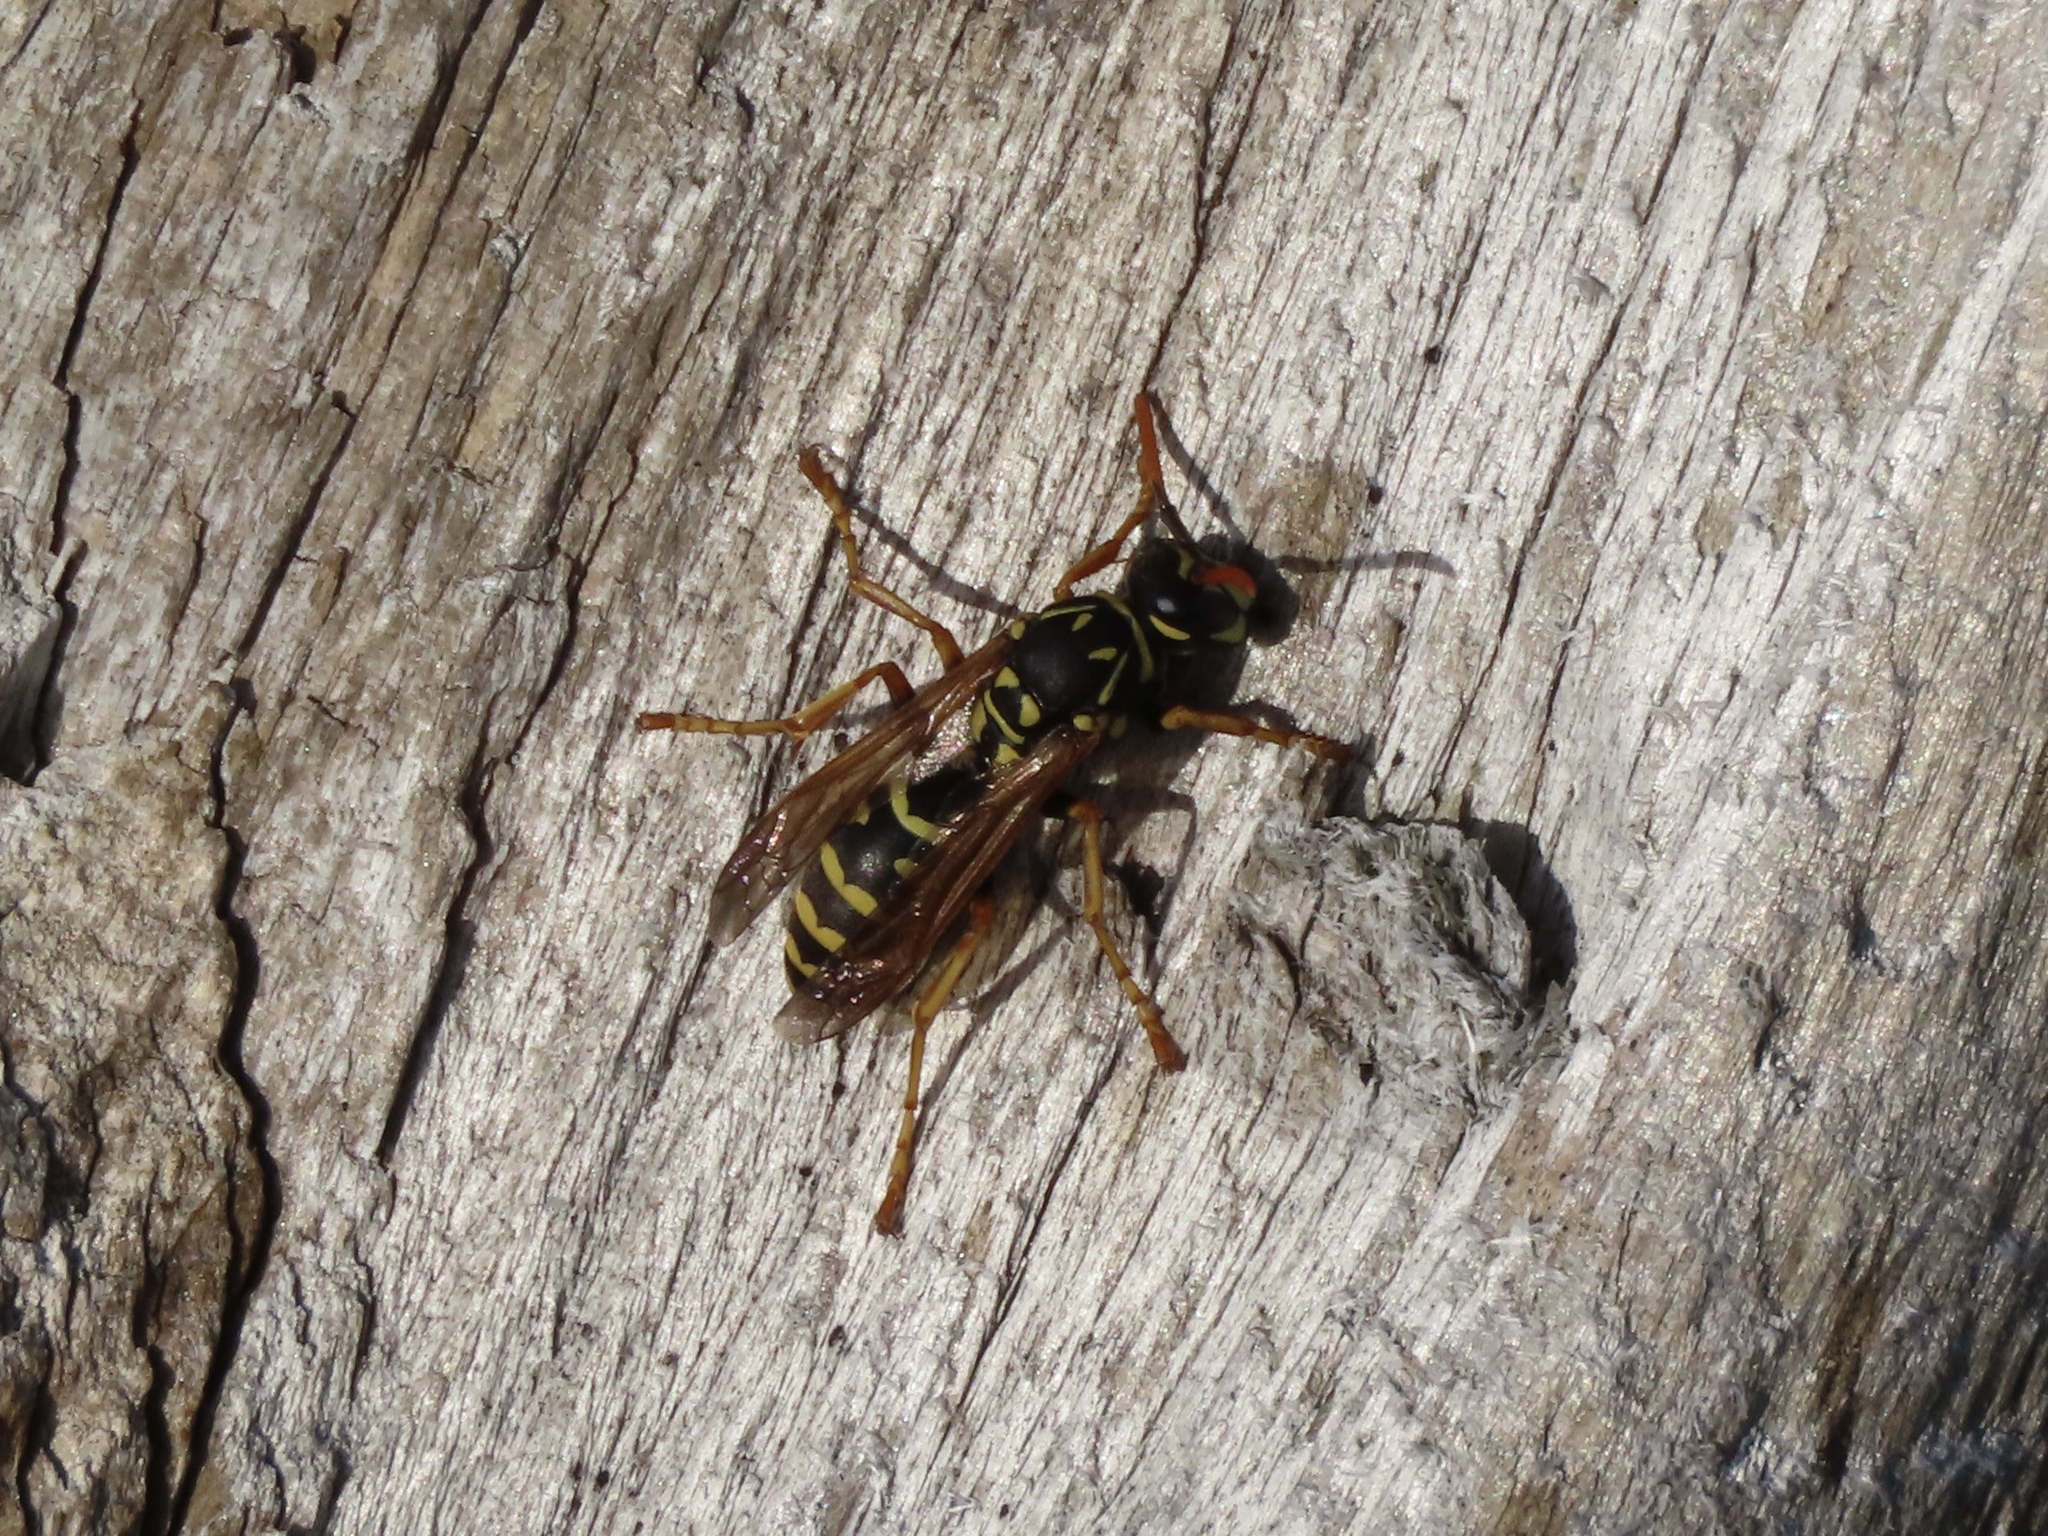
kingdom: Animalia
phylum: Arthropoda
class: Insecta
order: Hymenoptera
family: Eumenidae
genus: Polistes
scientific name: Polistes dominula
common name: Paper wasp
